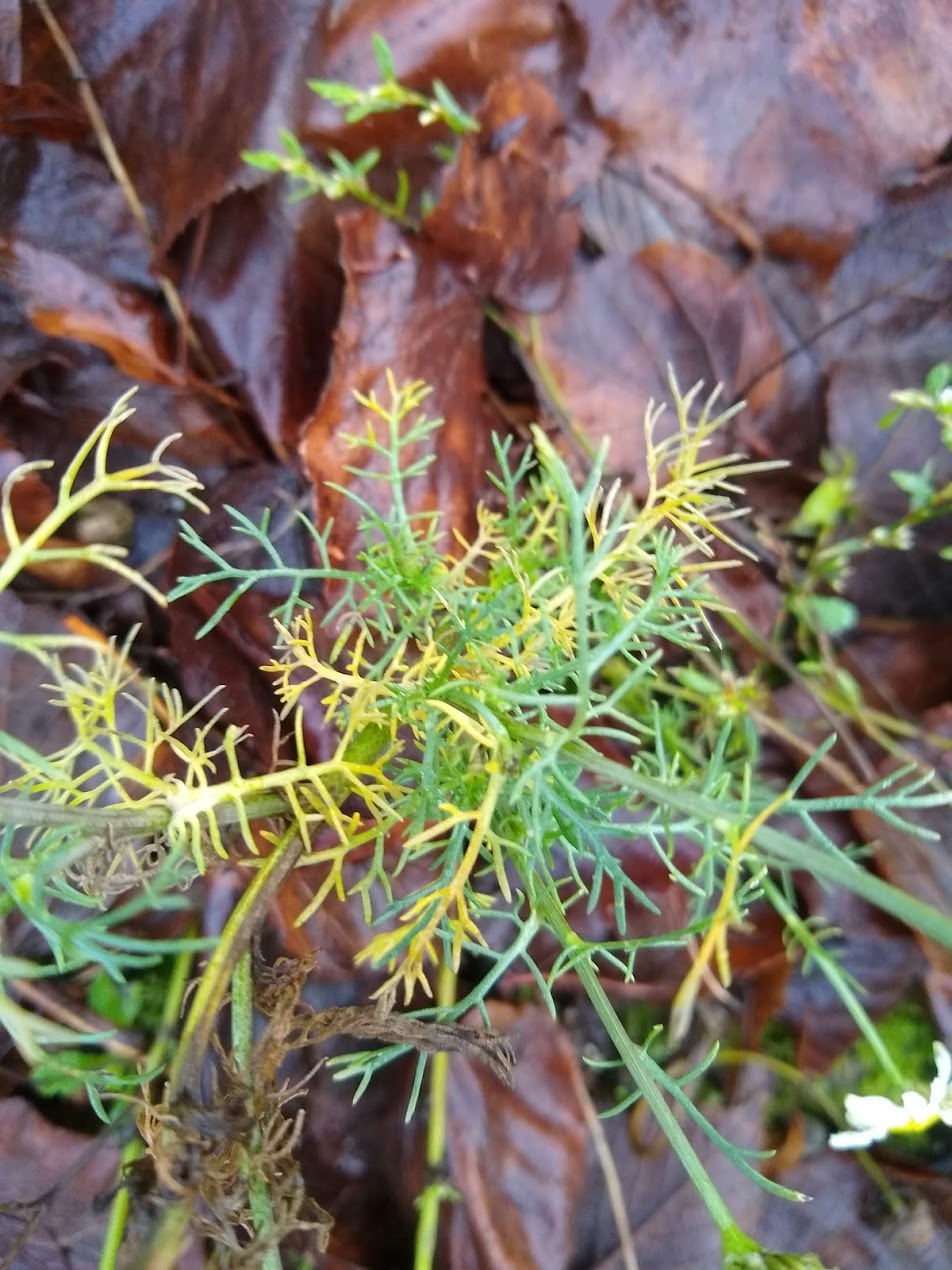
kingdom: Plantae
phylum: Tracheophyta
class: Magnoliopsida
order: Asterales
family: Asteraceae
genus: Tripleurospermum
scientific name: Tripleurospermum inodorum
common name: Scentless mayweed
